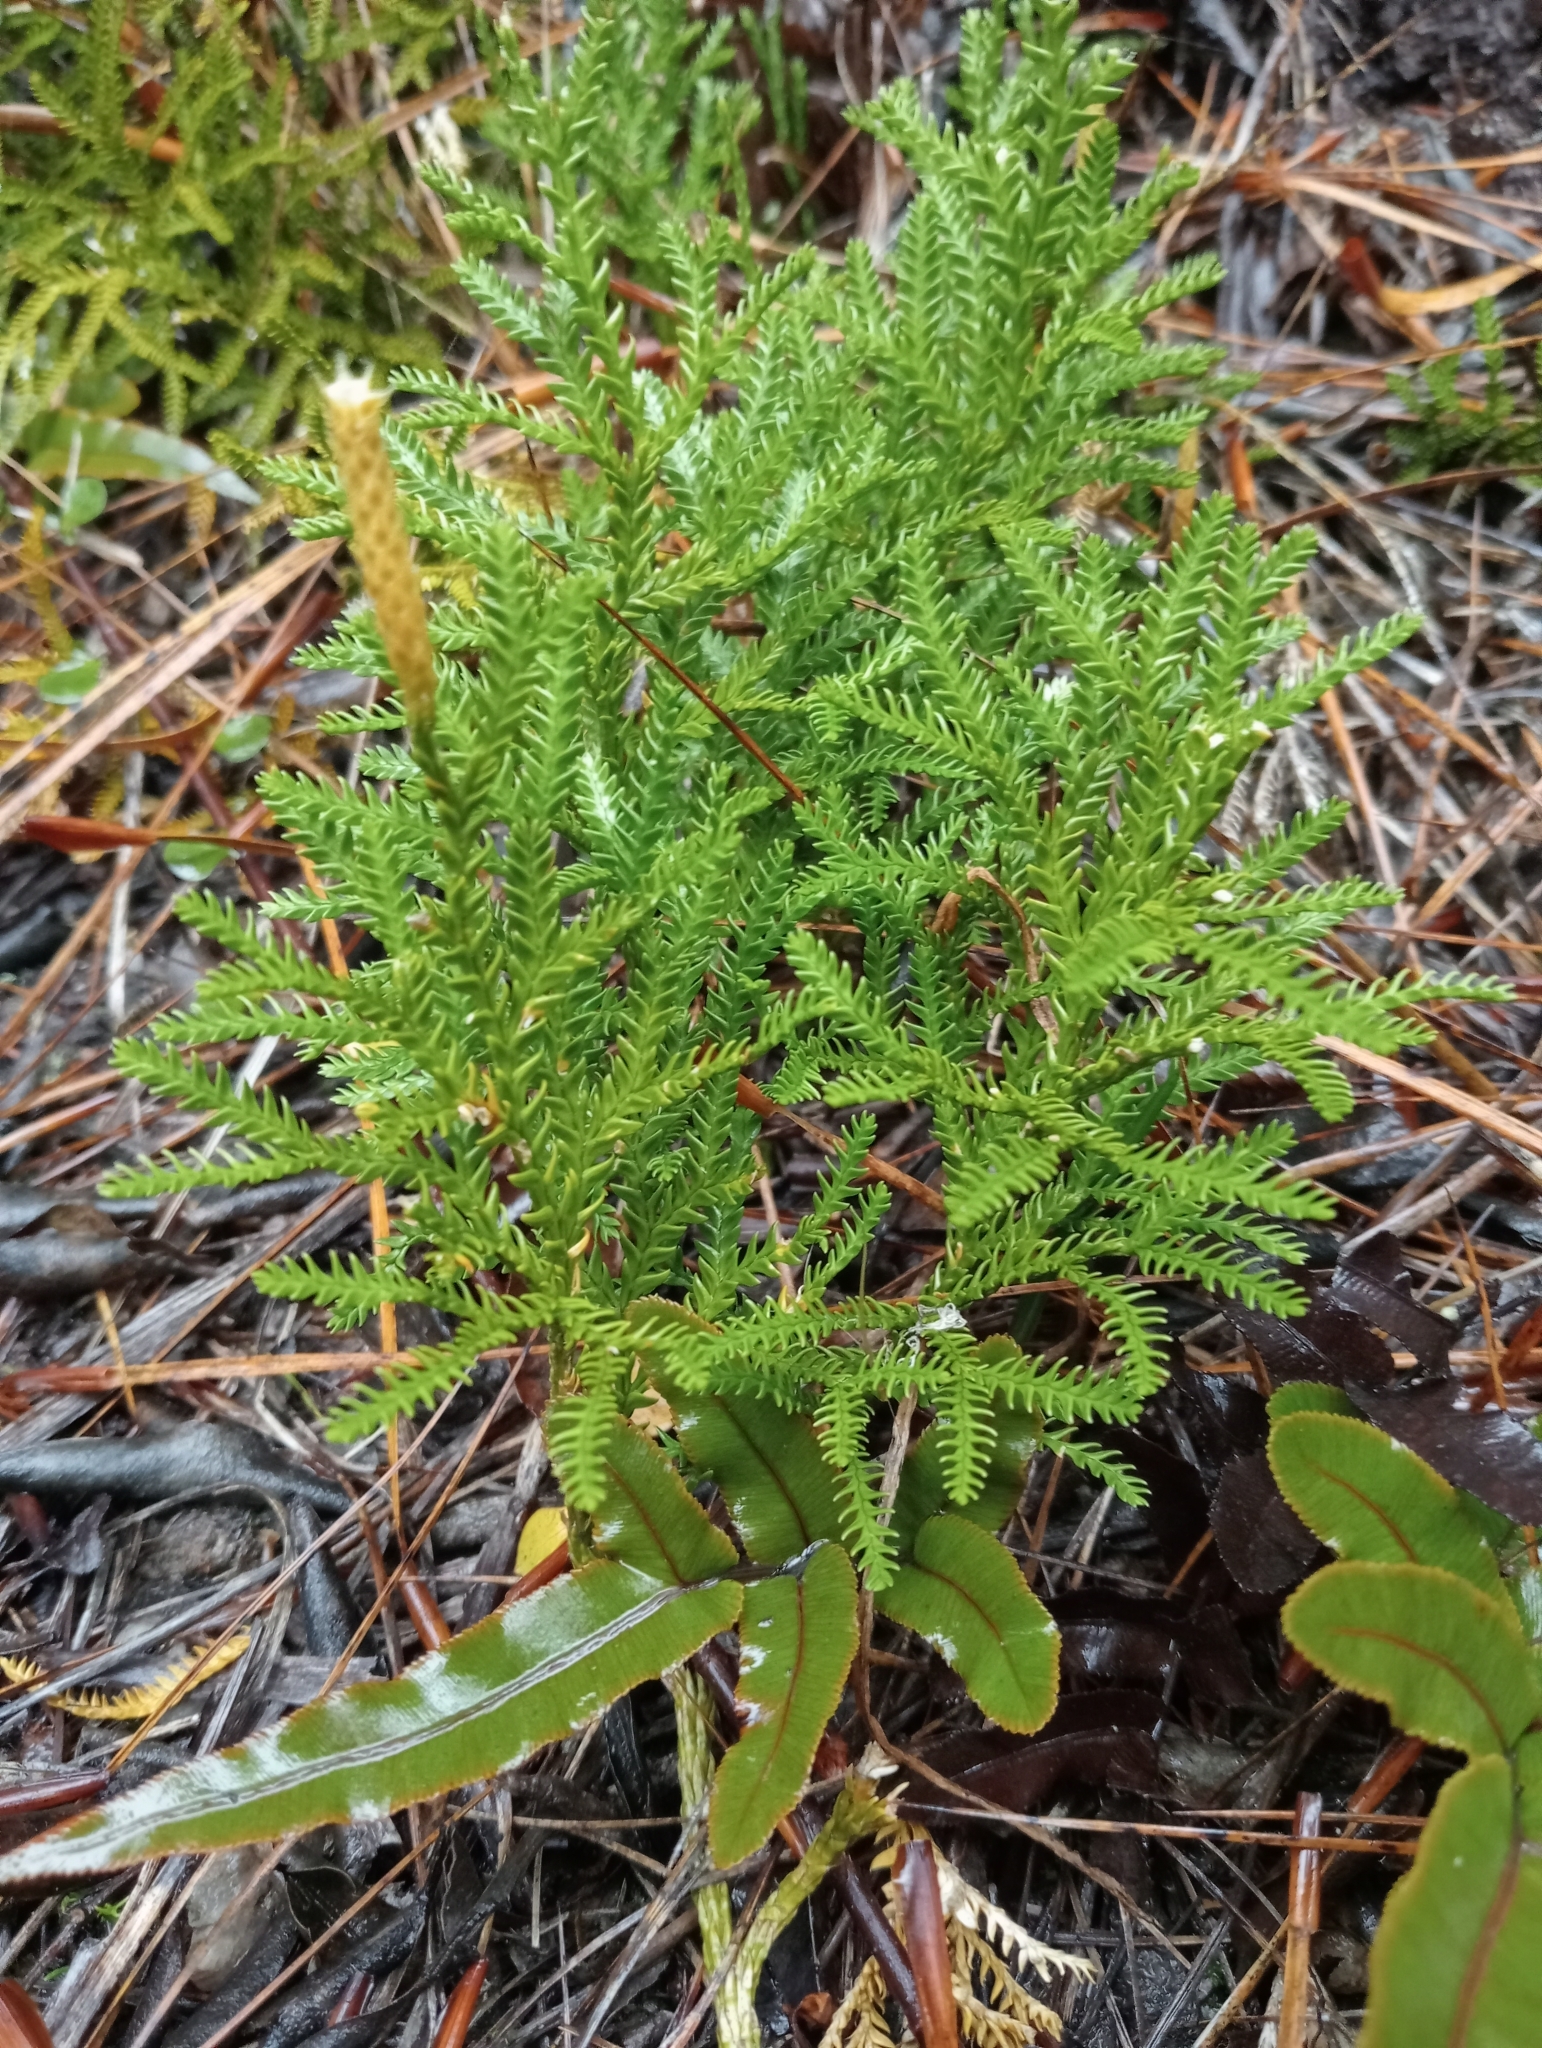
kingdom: Plantae
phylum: Tracheophyta
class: Lycopodiopsida
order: Lycopodiales
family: Lycopodiaceae
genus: Diphasium
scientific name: Diphasium scariosum
